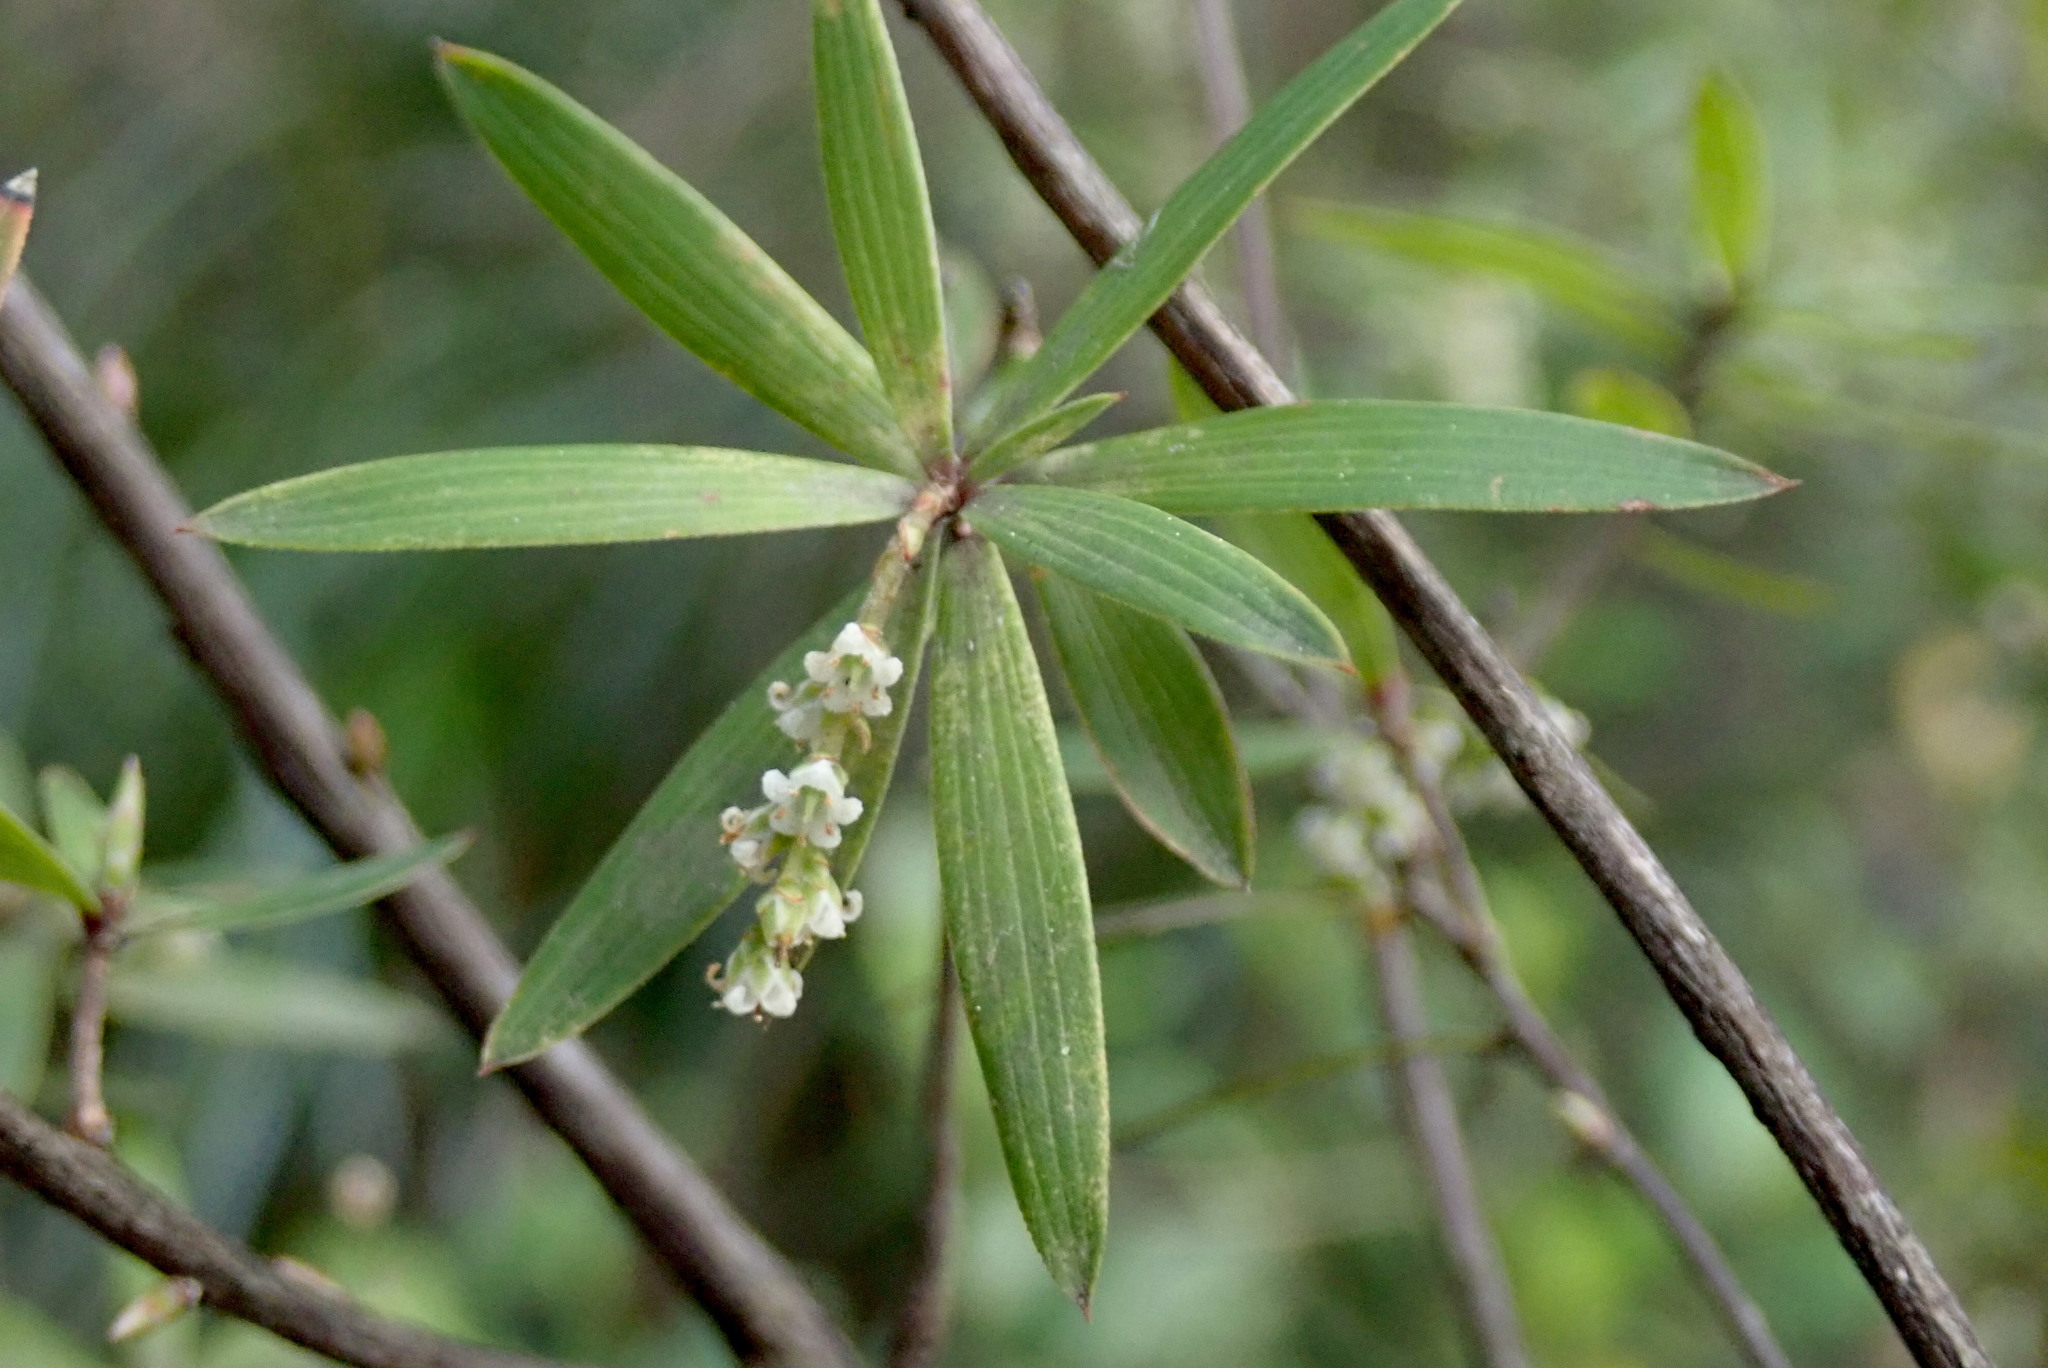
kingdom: Plantae
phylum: Tracheophyta
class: Magnoliopsida
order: Ericales
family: Ericaceae
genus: Leucopogon
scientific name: Leucopogon fasciculatus
